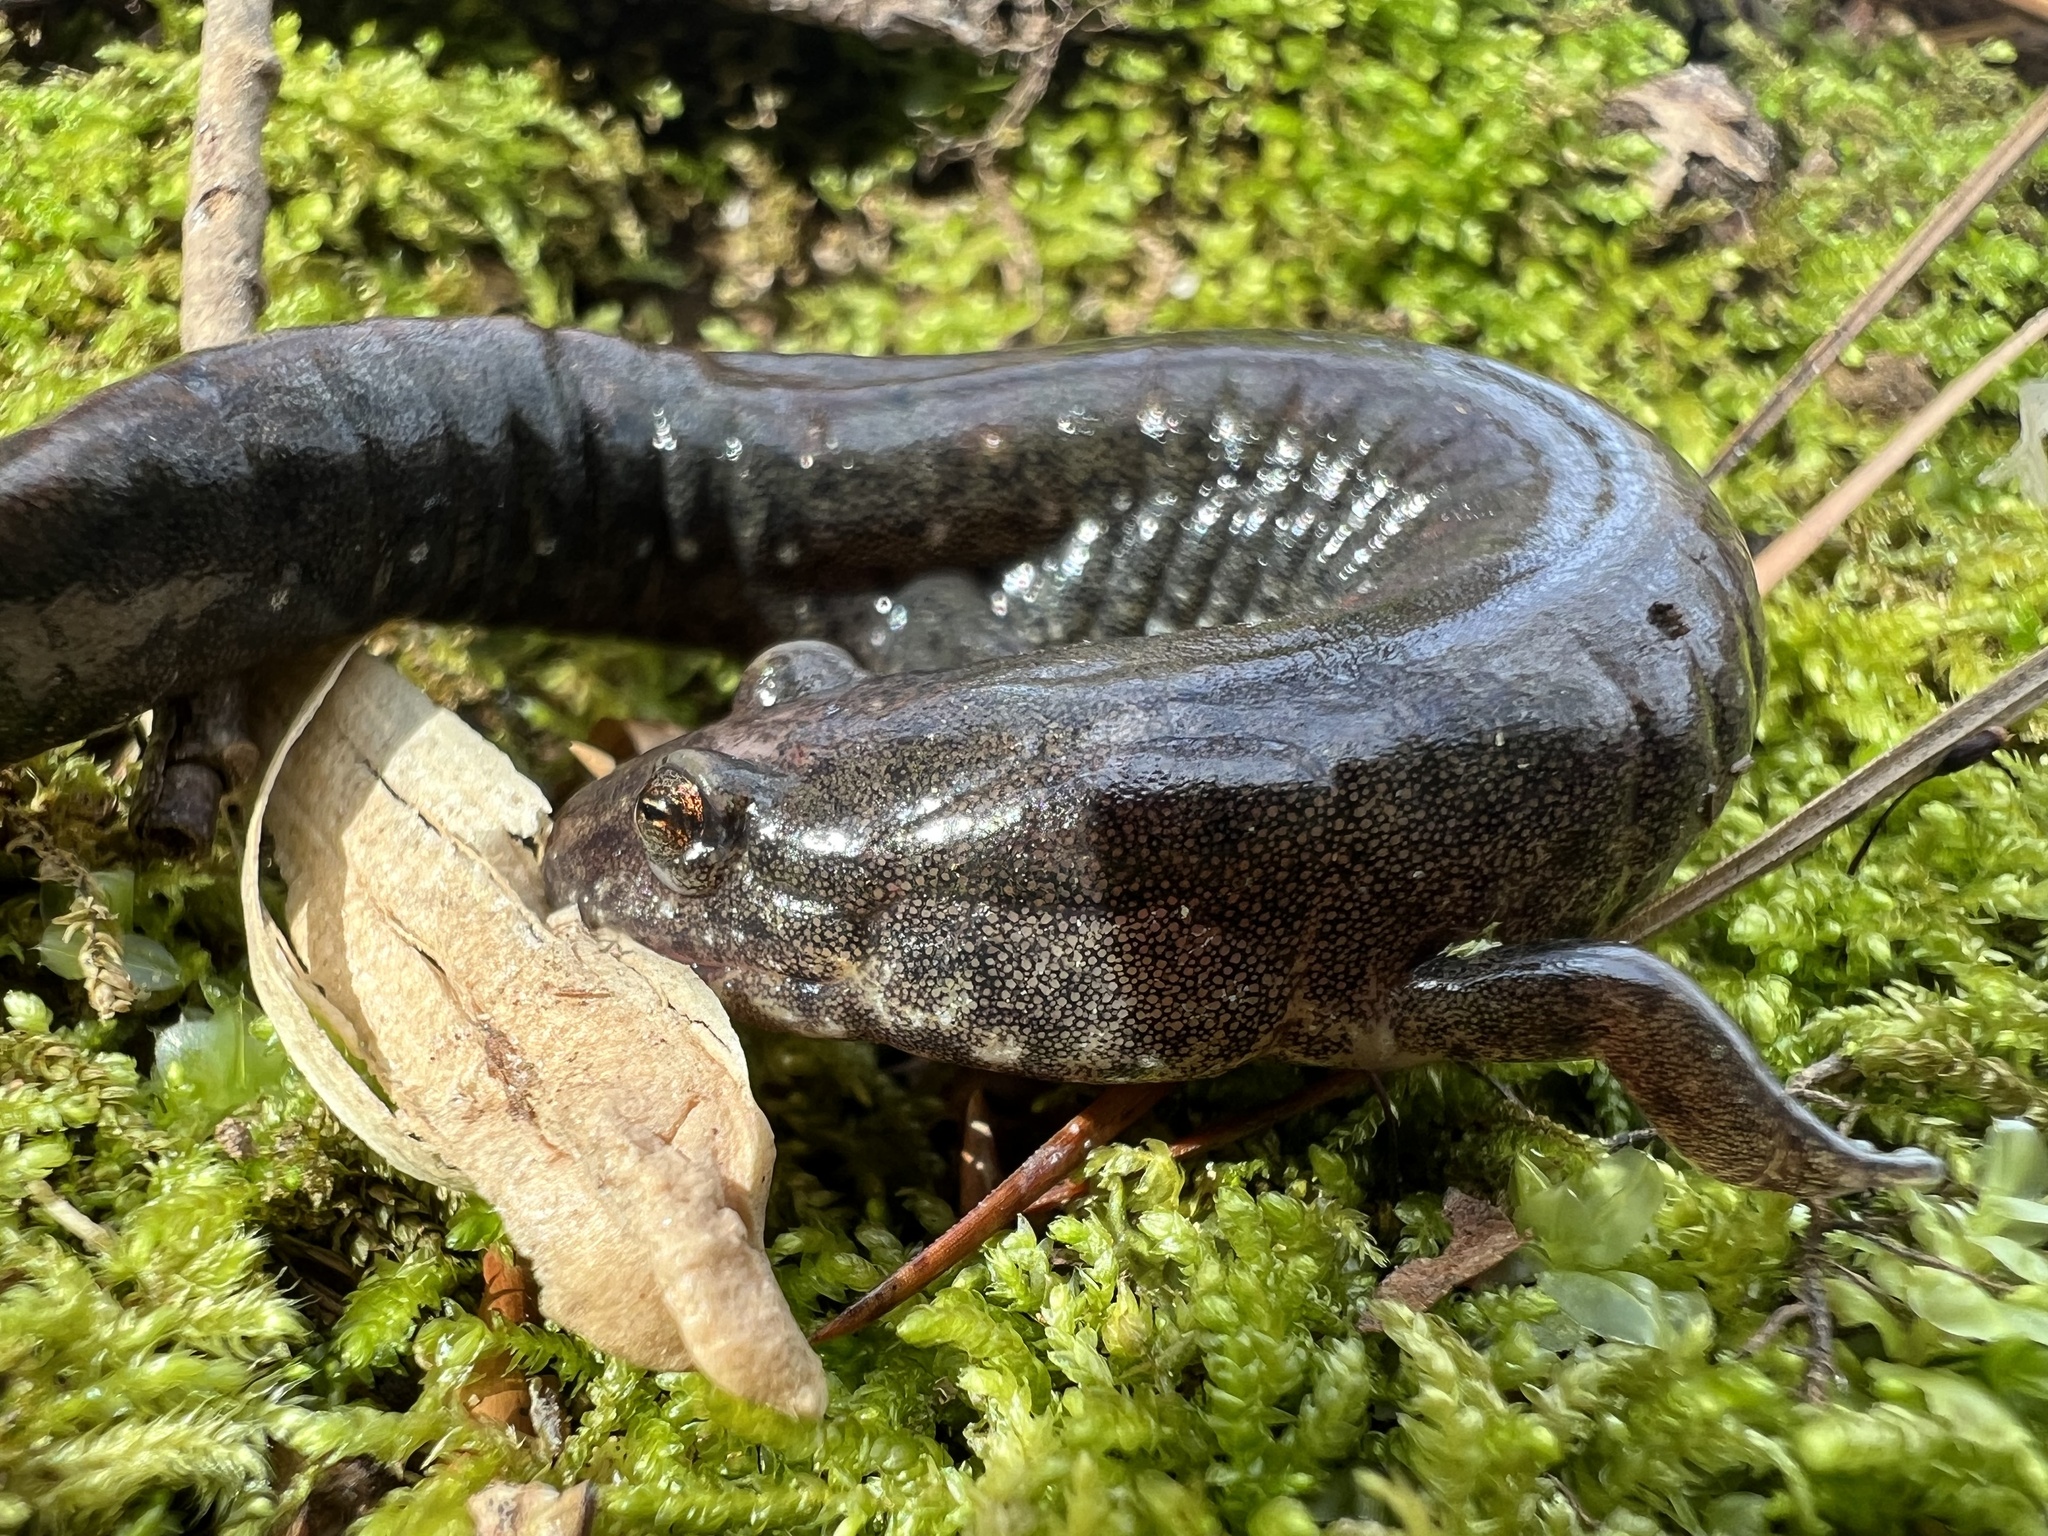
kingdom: Animalia
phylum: Chordata
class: Amphibia
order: Caudata
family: Plethodontidae
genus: Desmognathus
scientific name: Desmognathus
